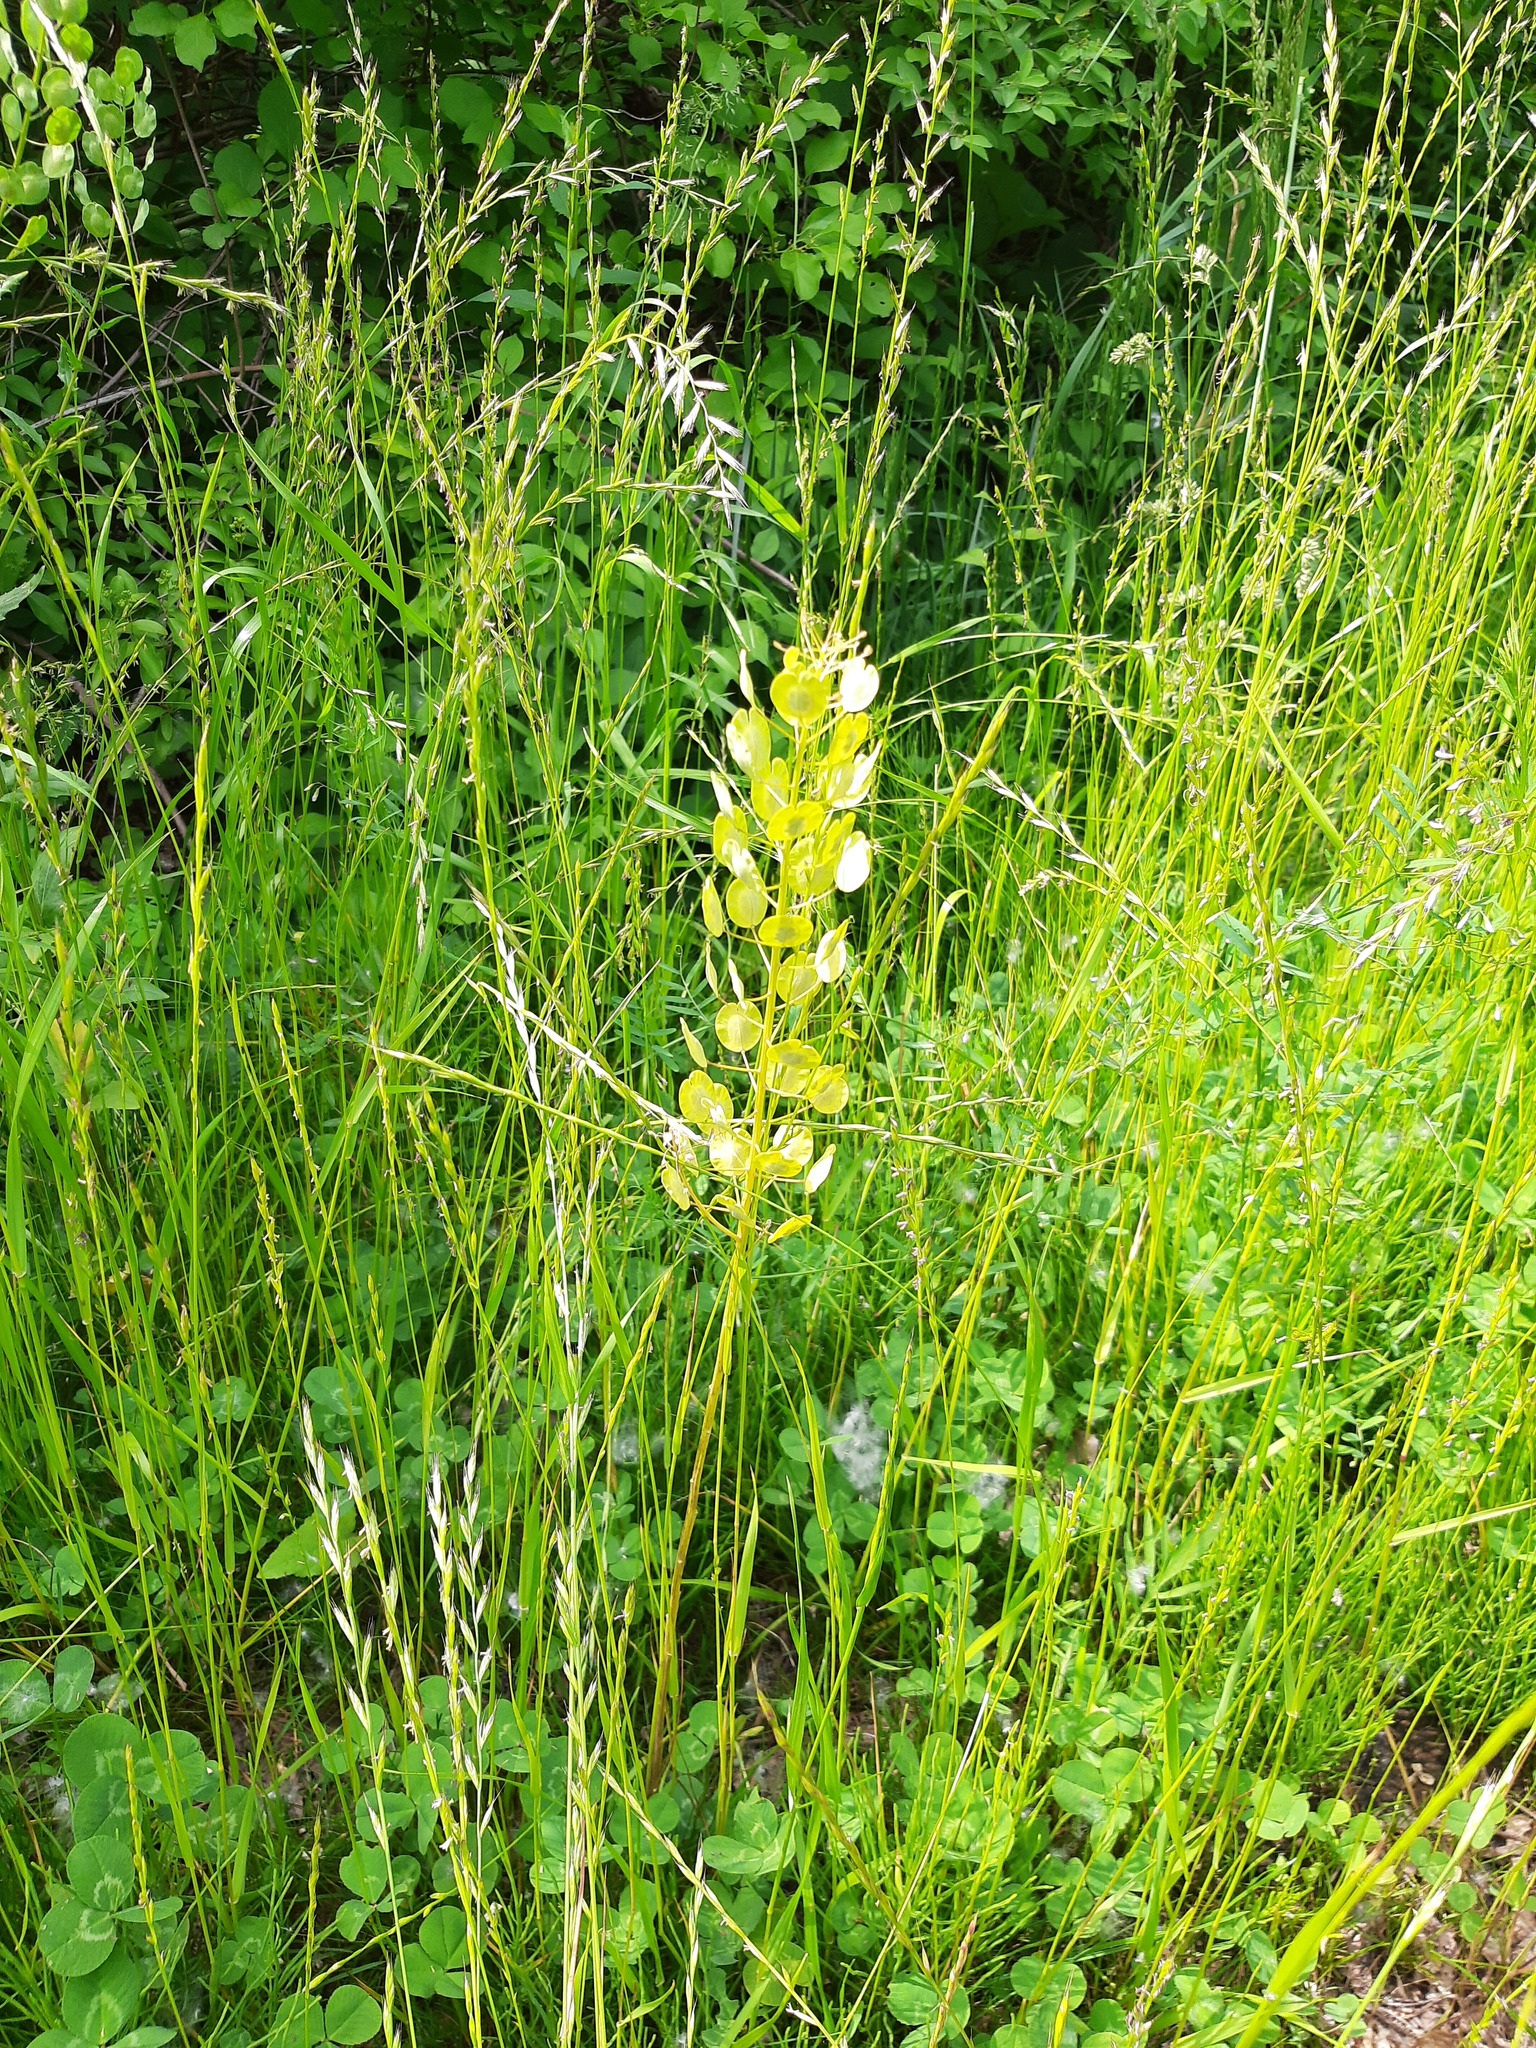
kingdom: Plantae
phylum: Tracheophyta
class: Magnoliopsida
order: Brassicales
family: Brassicaceae
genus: Thlaspi
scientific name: Thlaspi arvense
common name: Field pennycress
